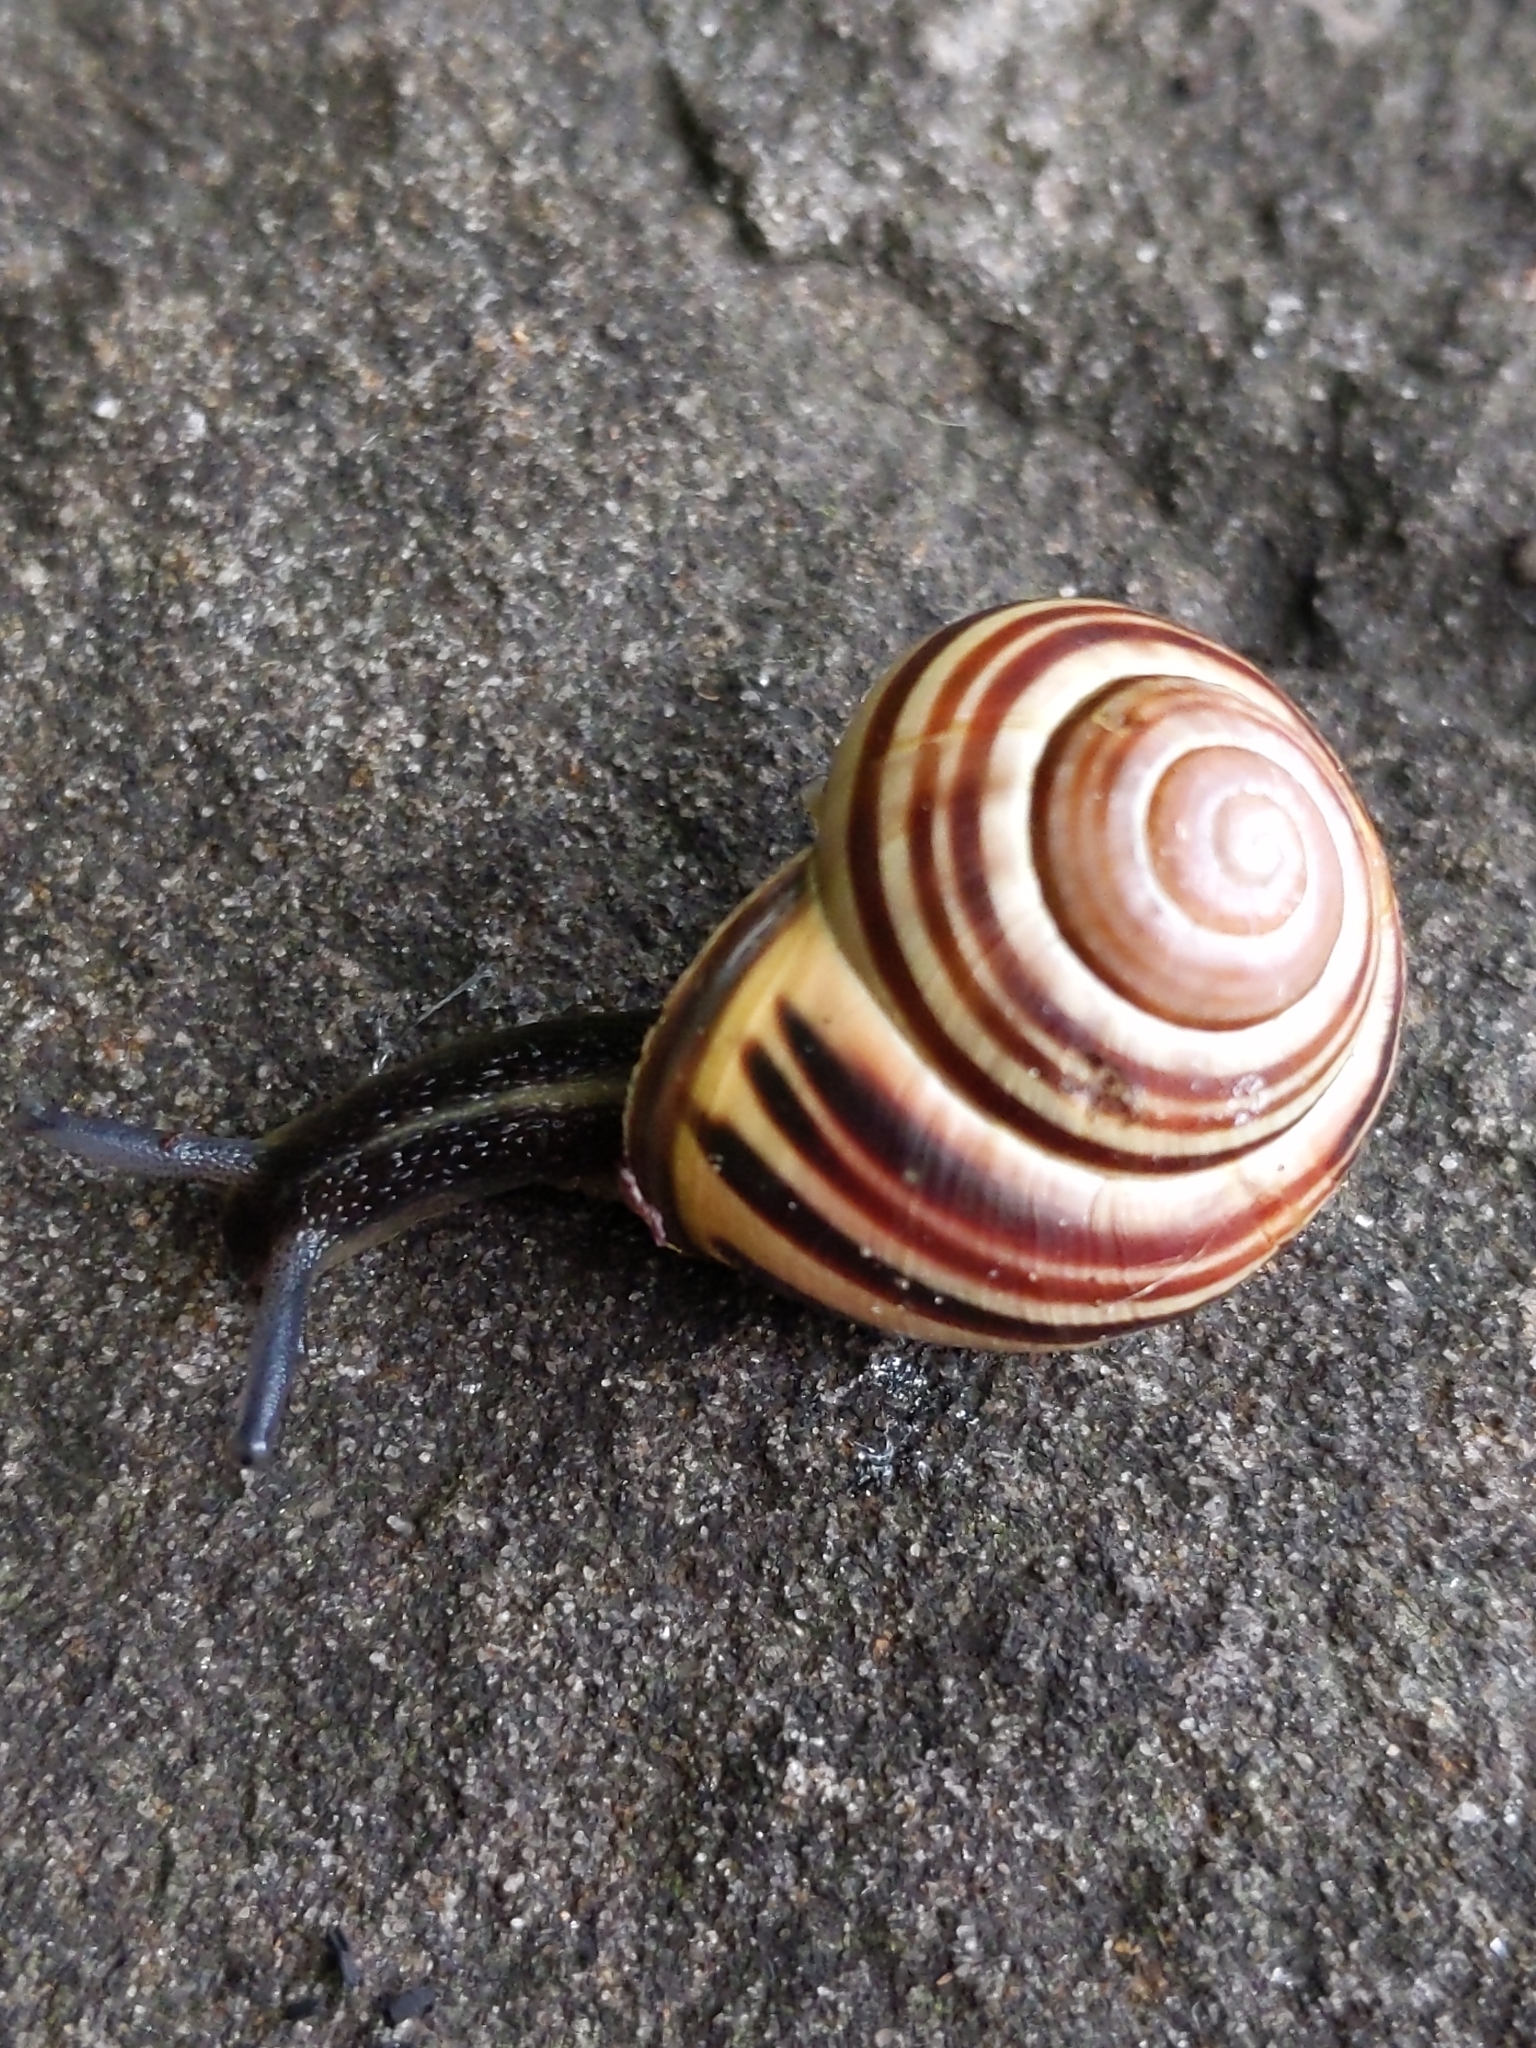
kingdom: Animalia
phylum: Mollusca
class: Gastropoda
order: Stylommatophora
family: Helicidae
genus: Cepaea
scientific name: Cepaea nemoralis
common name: Grovesnail
